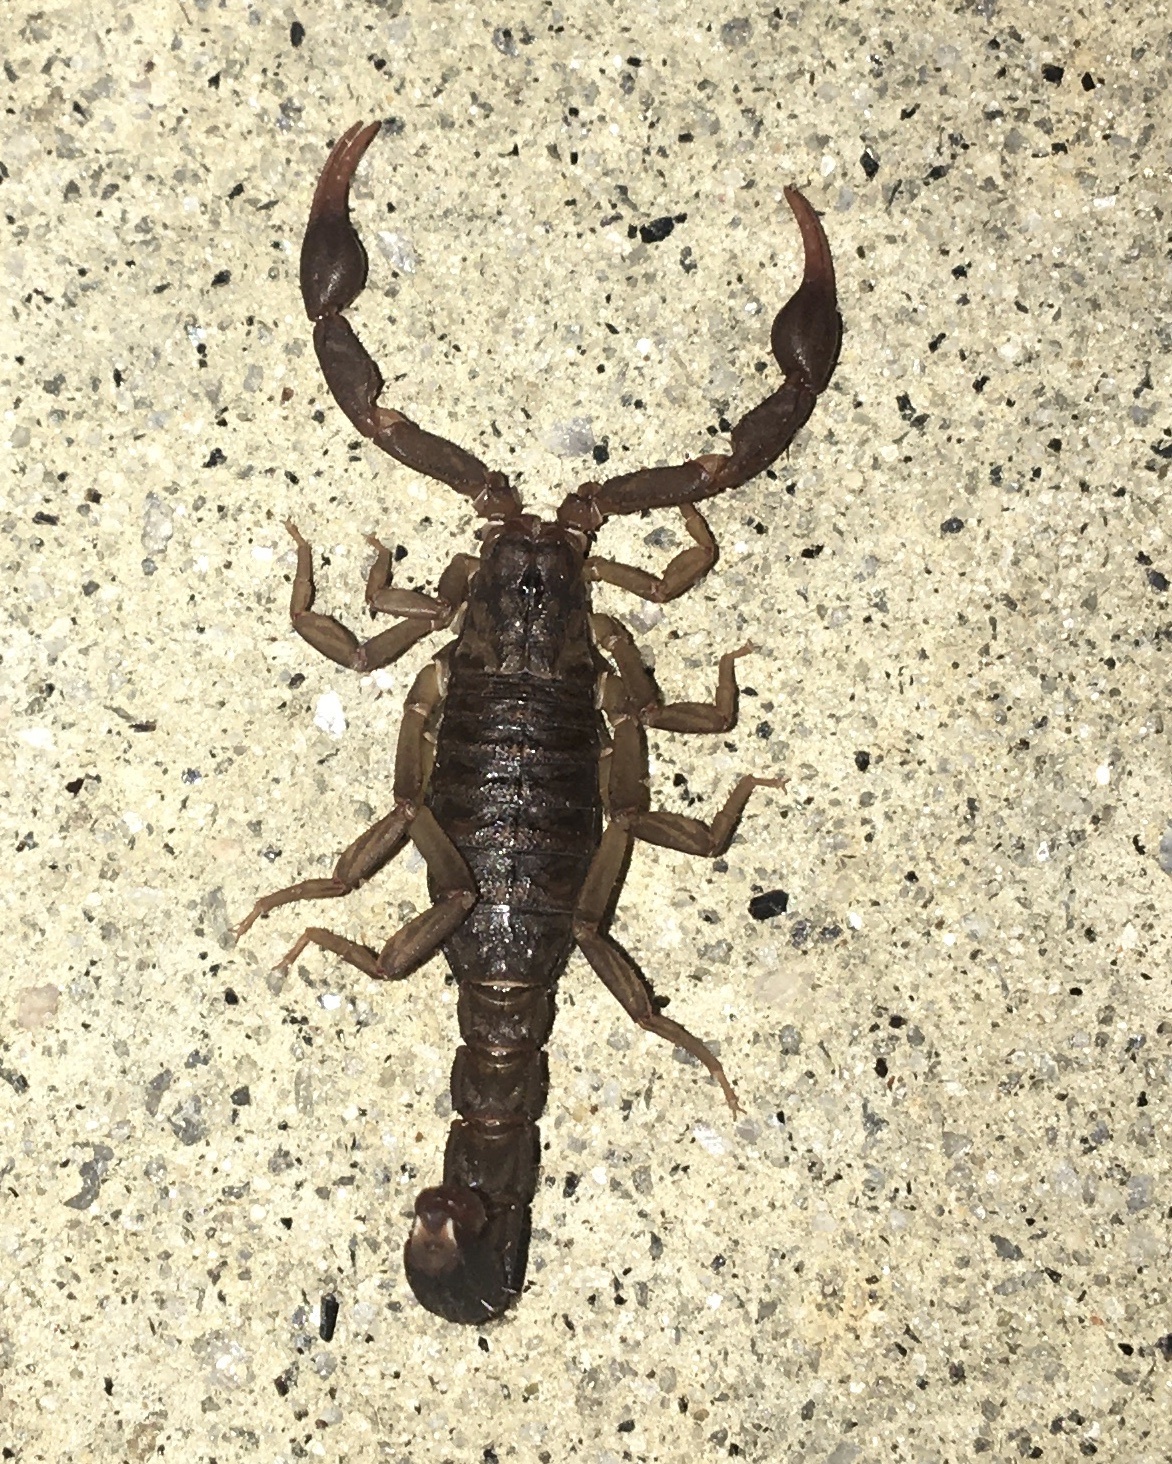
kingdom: Animalia
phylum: Arthropoda
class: Arachnida
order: Scorpiones
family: Vaejovidae
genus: Vaejovis
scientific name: Vaejovis carolinianus
